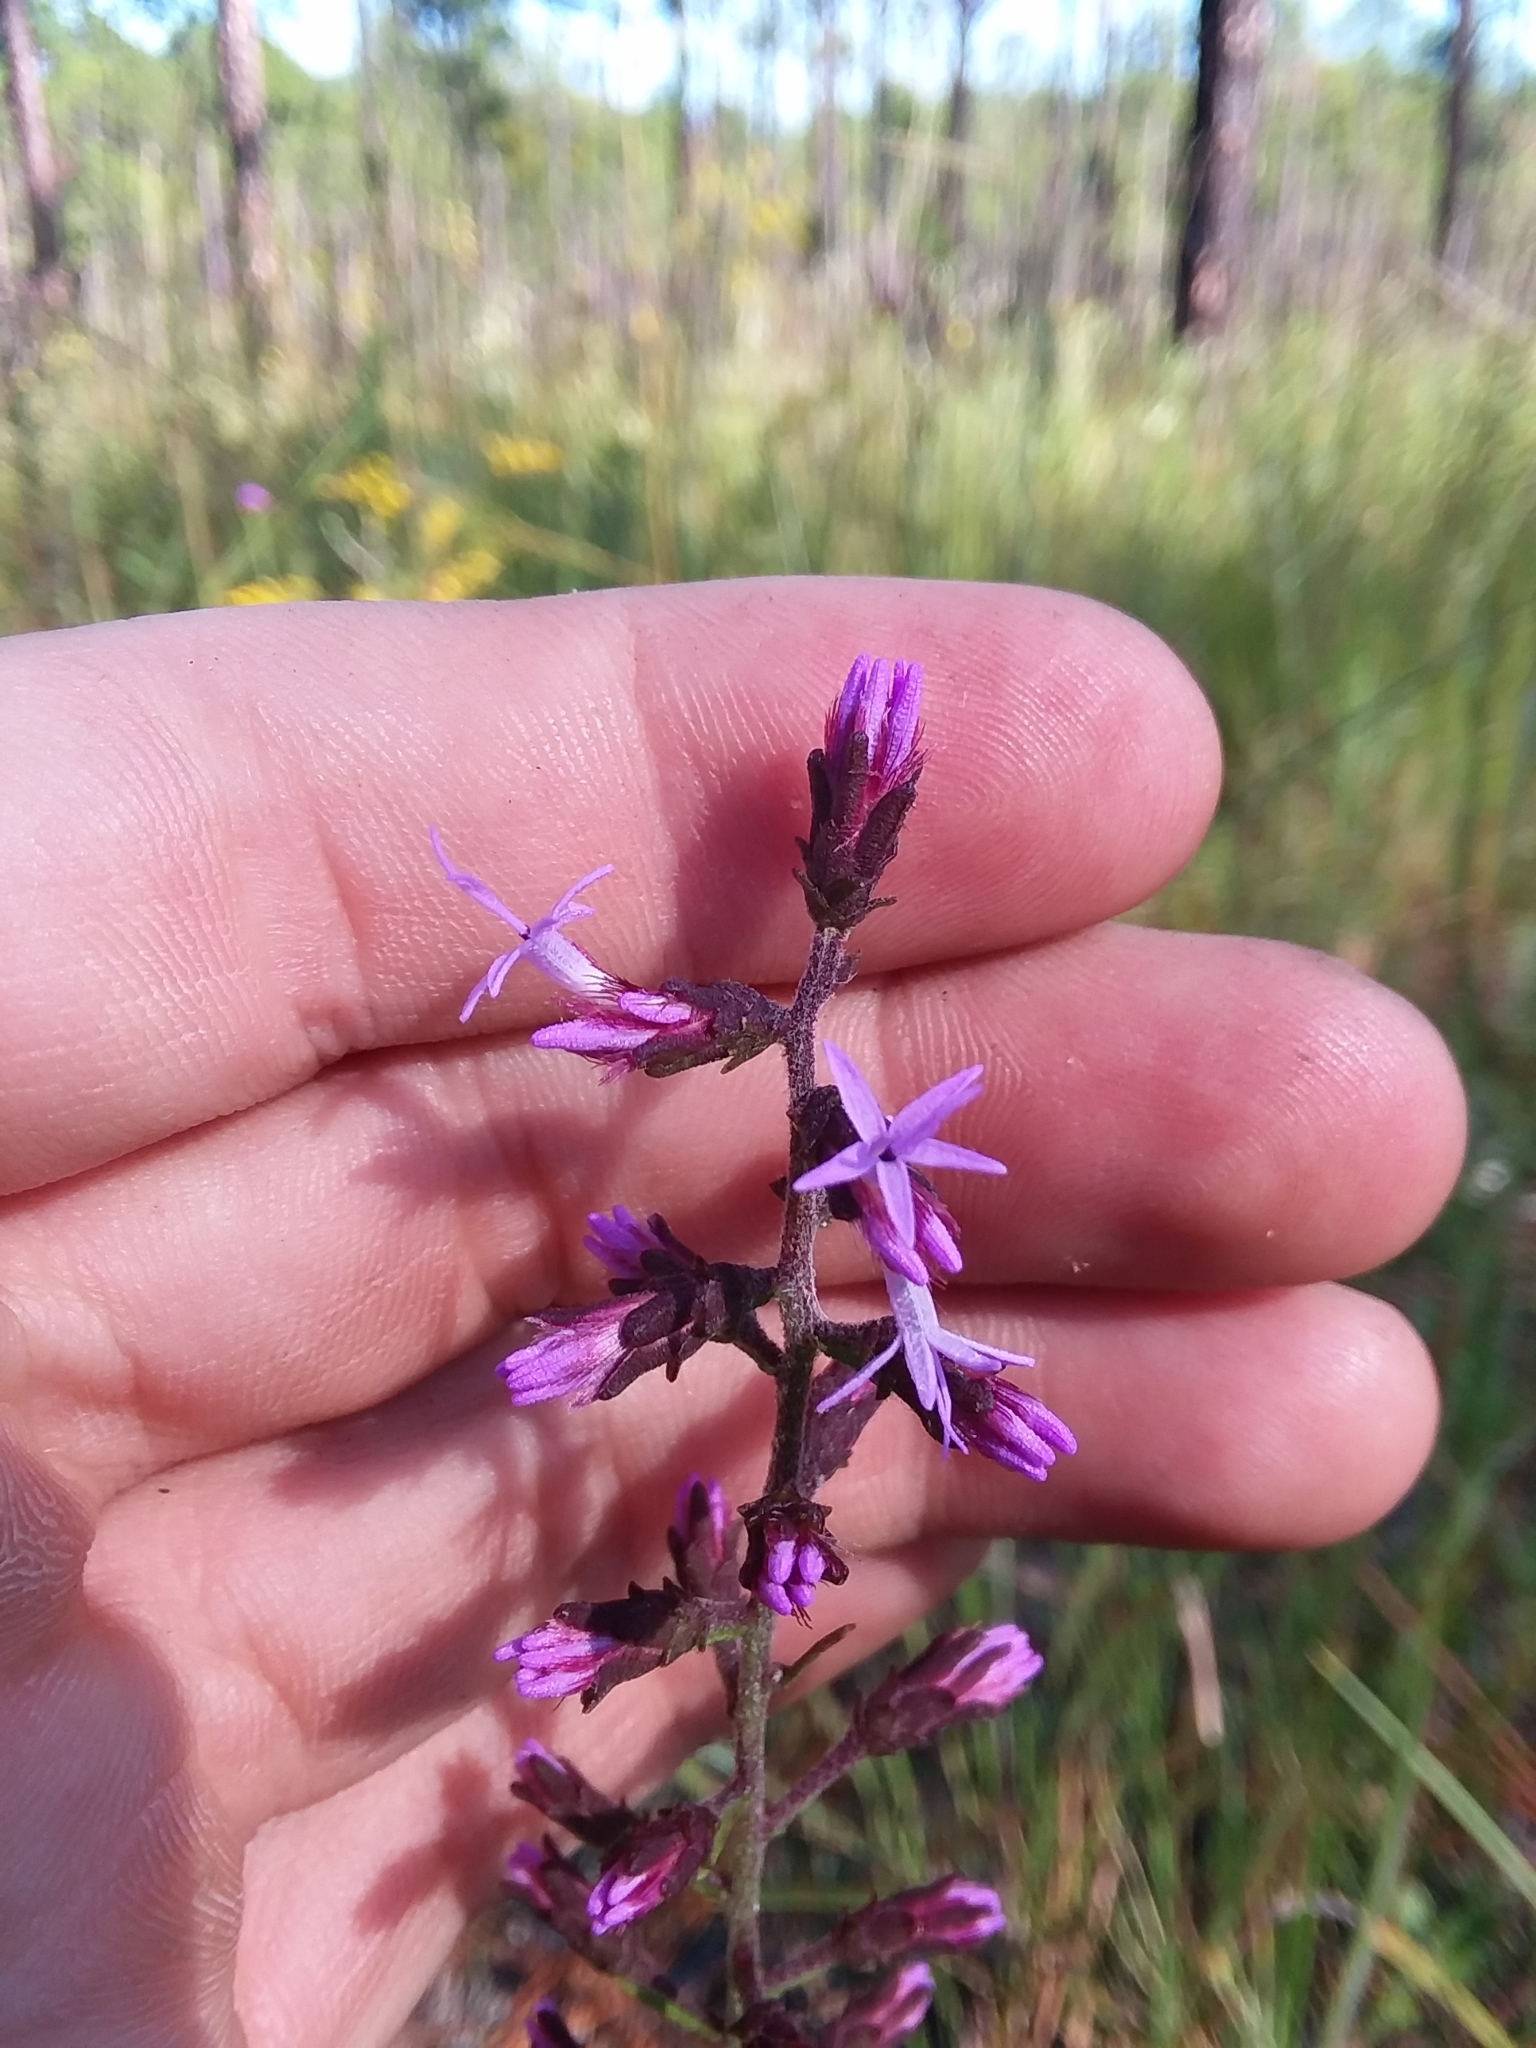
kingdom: Plantae
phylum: Tracheophyta
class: Magnoliopsida
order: Asterales
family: Asteraceae
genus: Liatris
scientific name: Liatris gracilis
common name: Slender gayfeather
